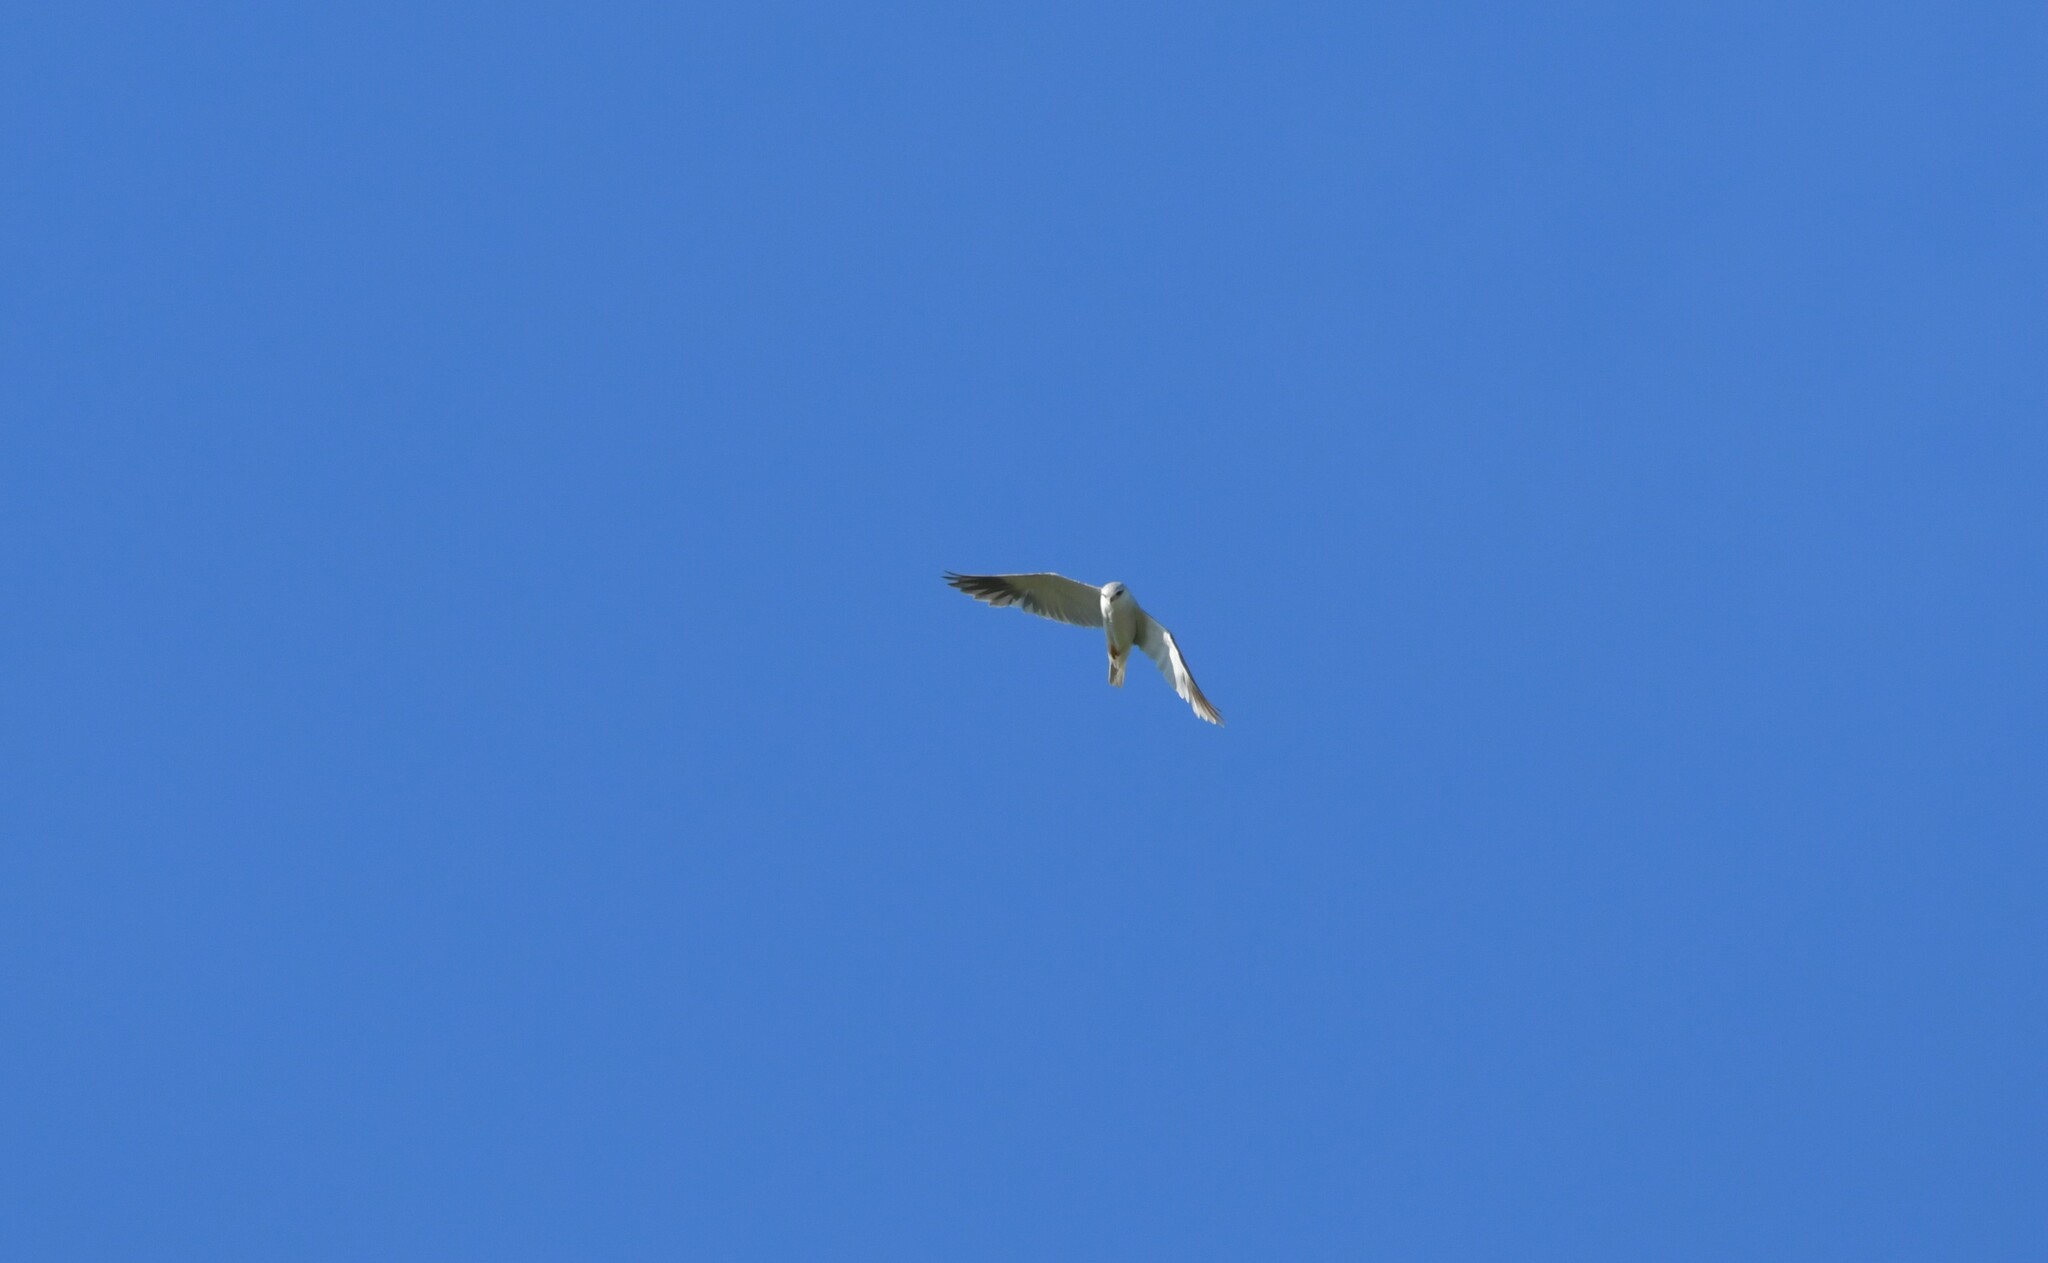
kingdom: Animalia
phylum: Chordata
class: Aves
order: Accipitriformes
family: Accipitridae
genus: Elanus
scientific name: Elanus caeruleus
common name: Black-winged kite
